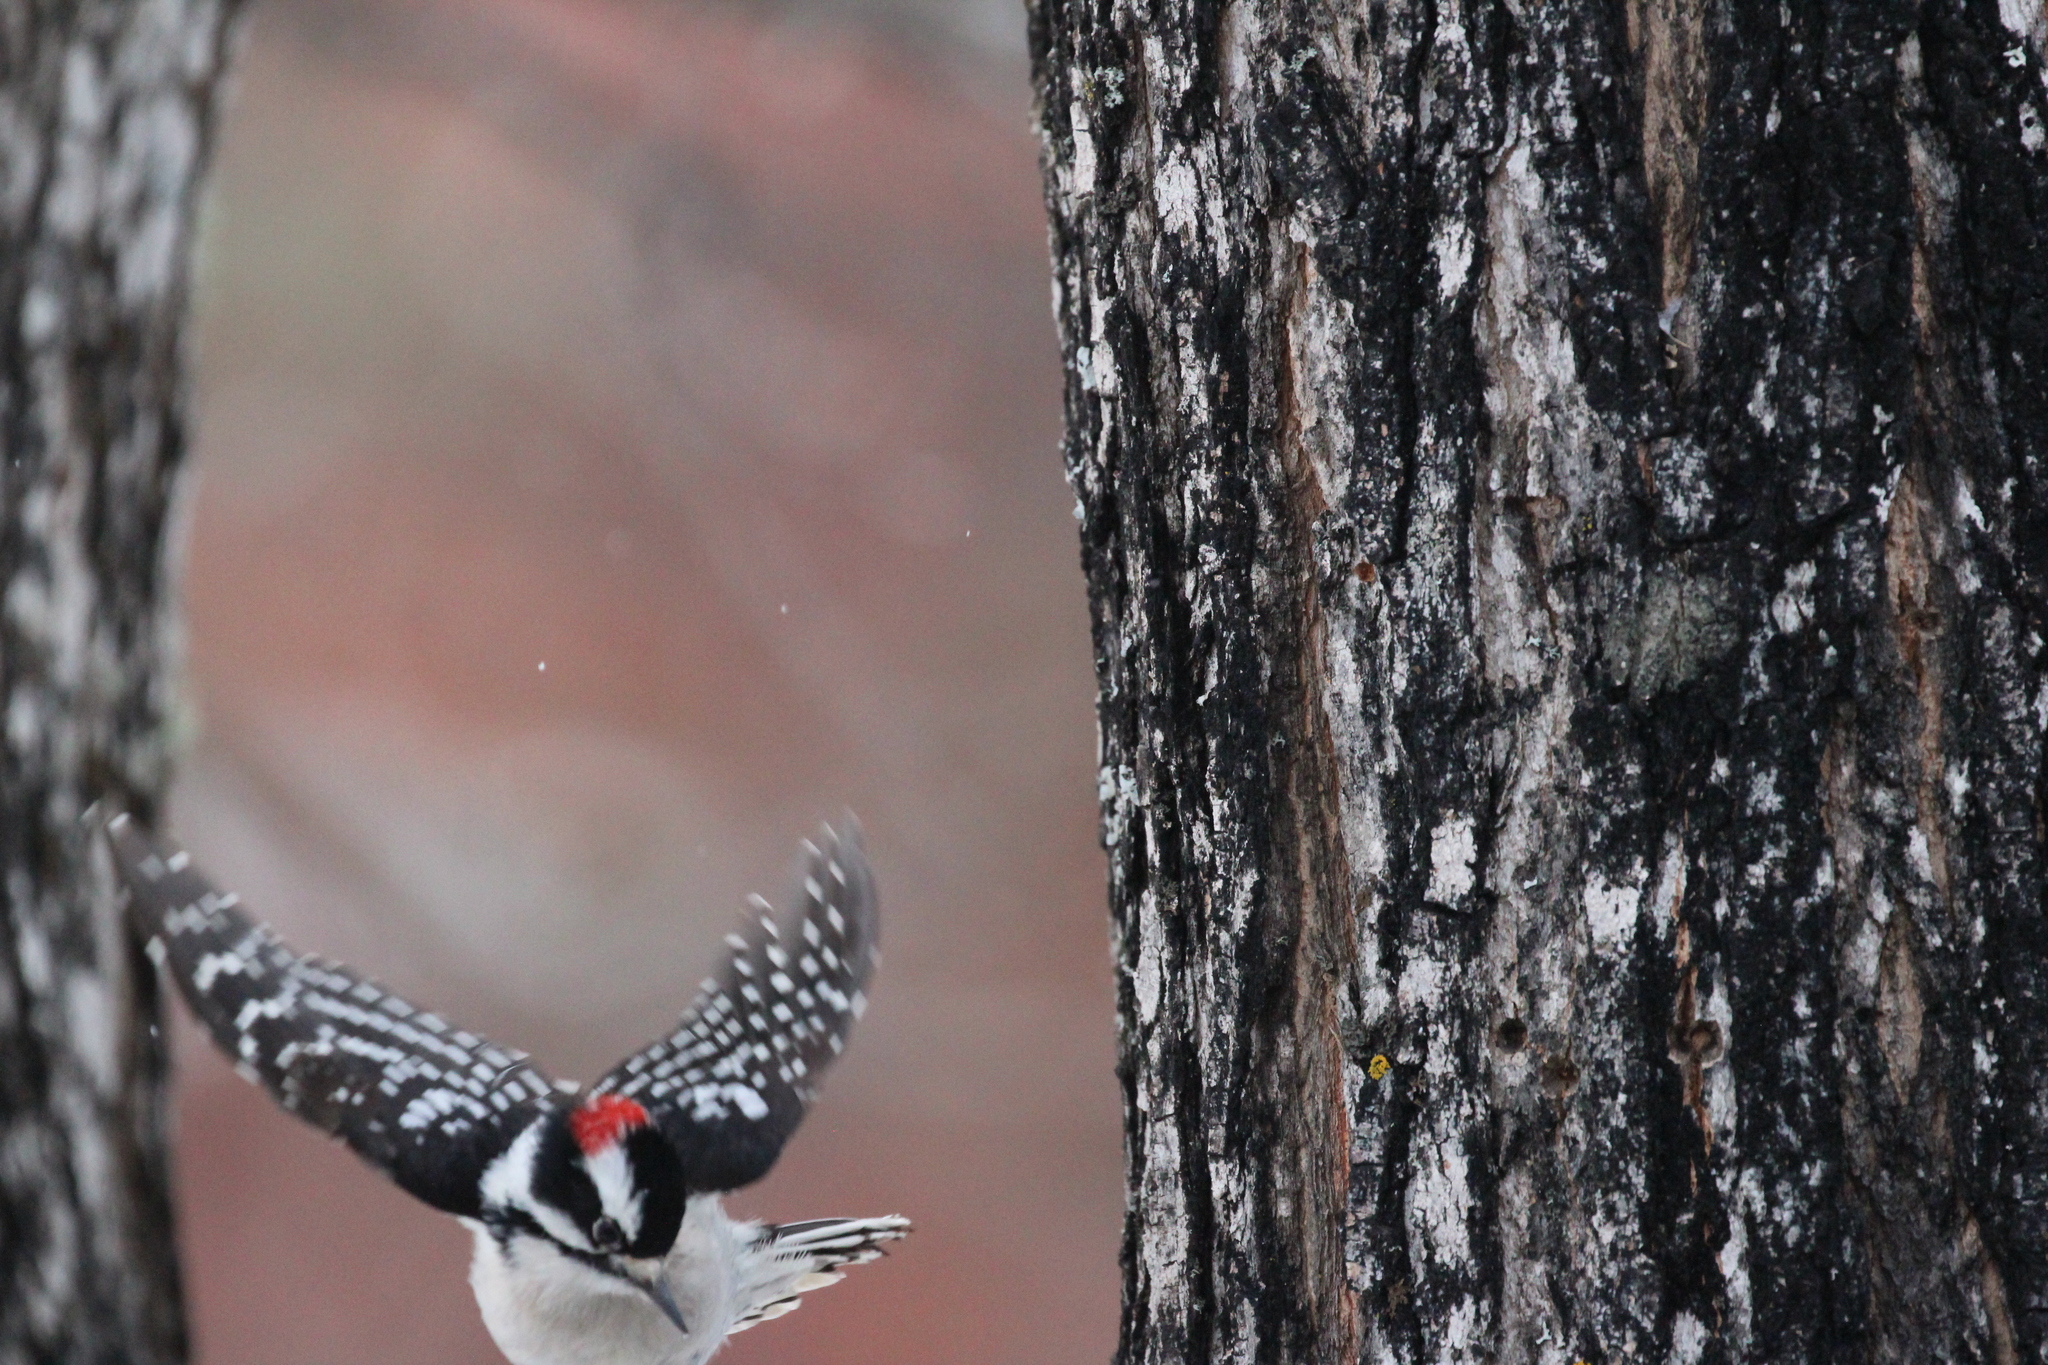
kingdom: Animalia
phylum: Chordata
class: Aves
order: Piciformes
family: Picidae
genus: Dryobates
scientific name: Dryobates pubescens
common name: Downy woodpecker
